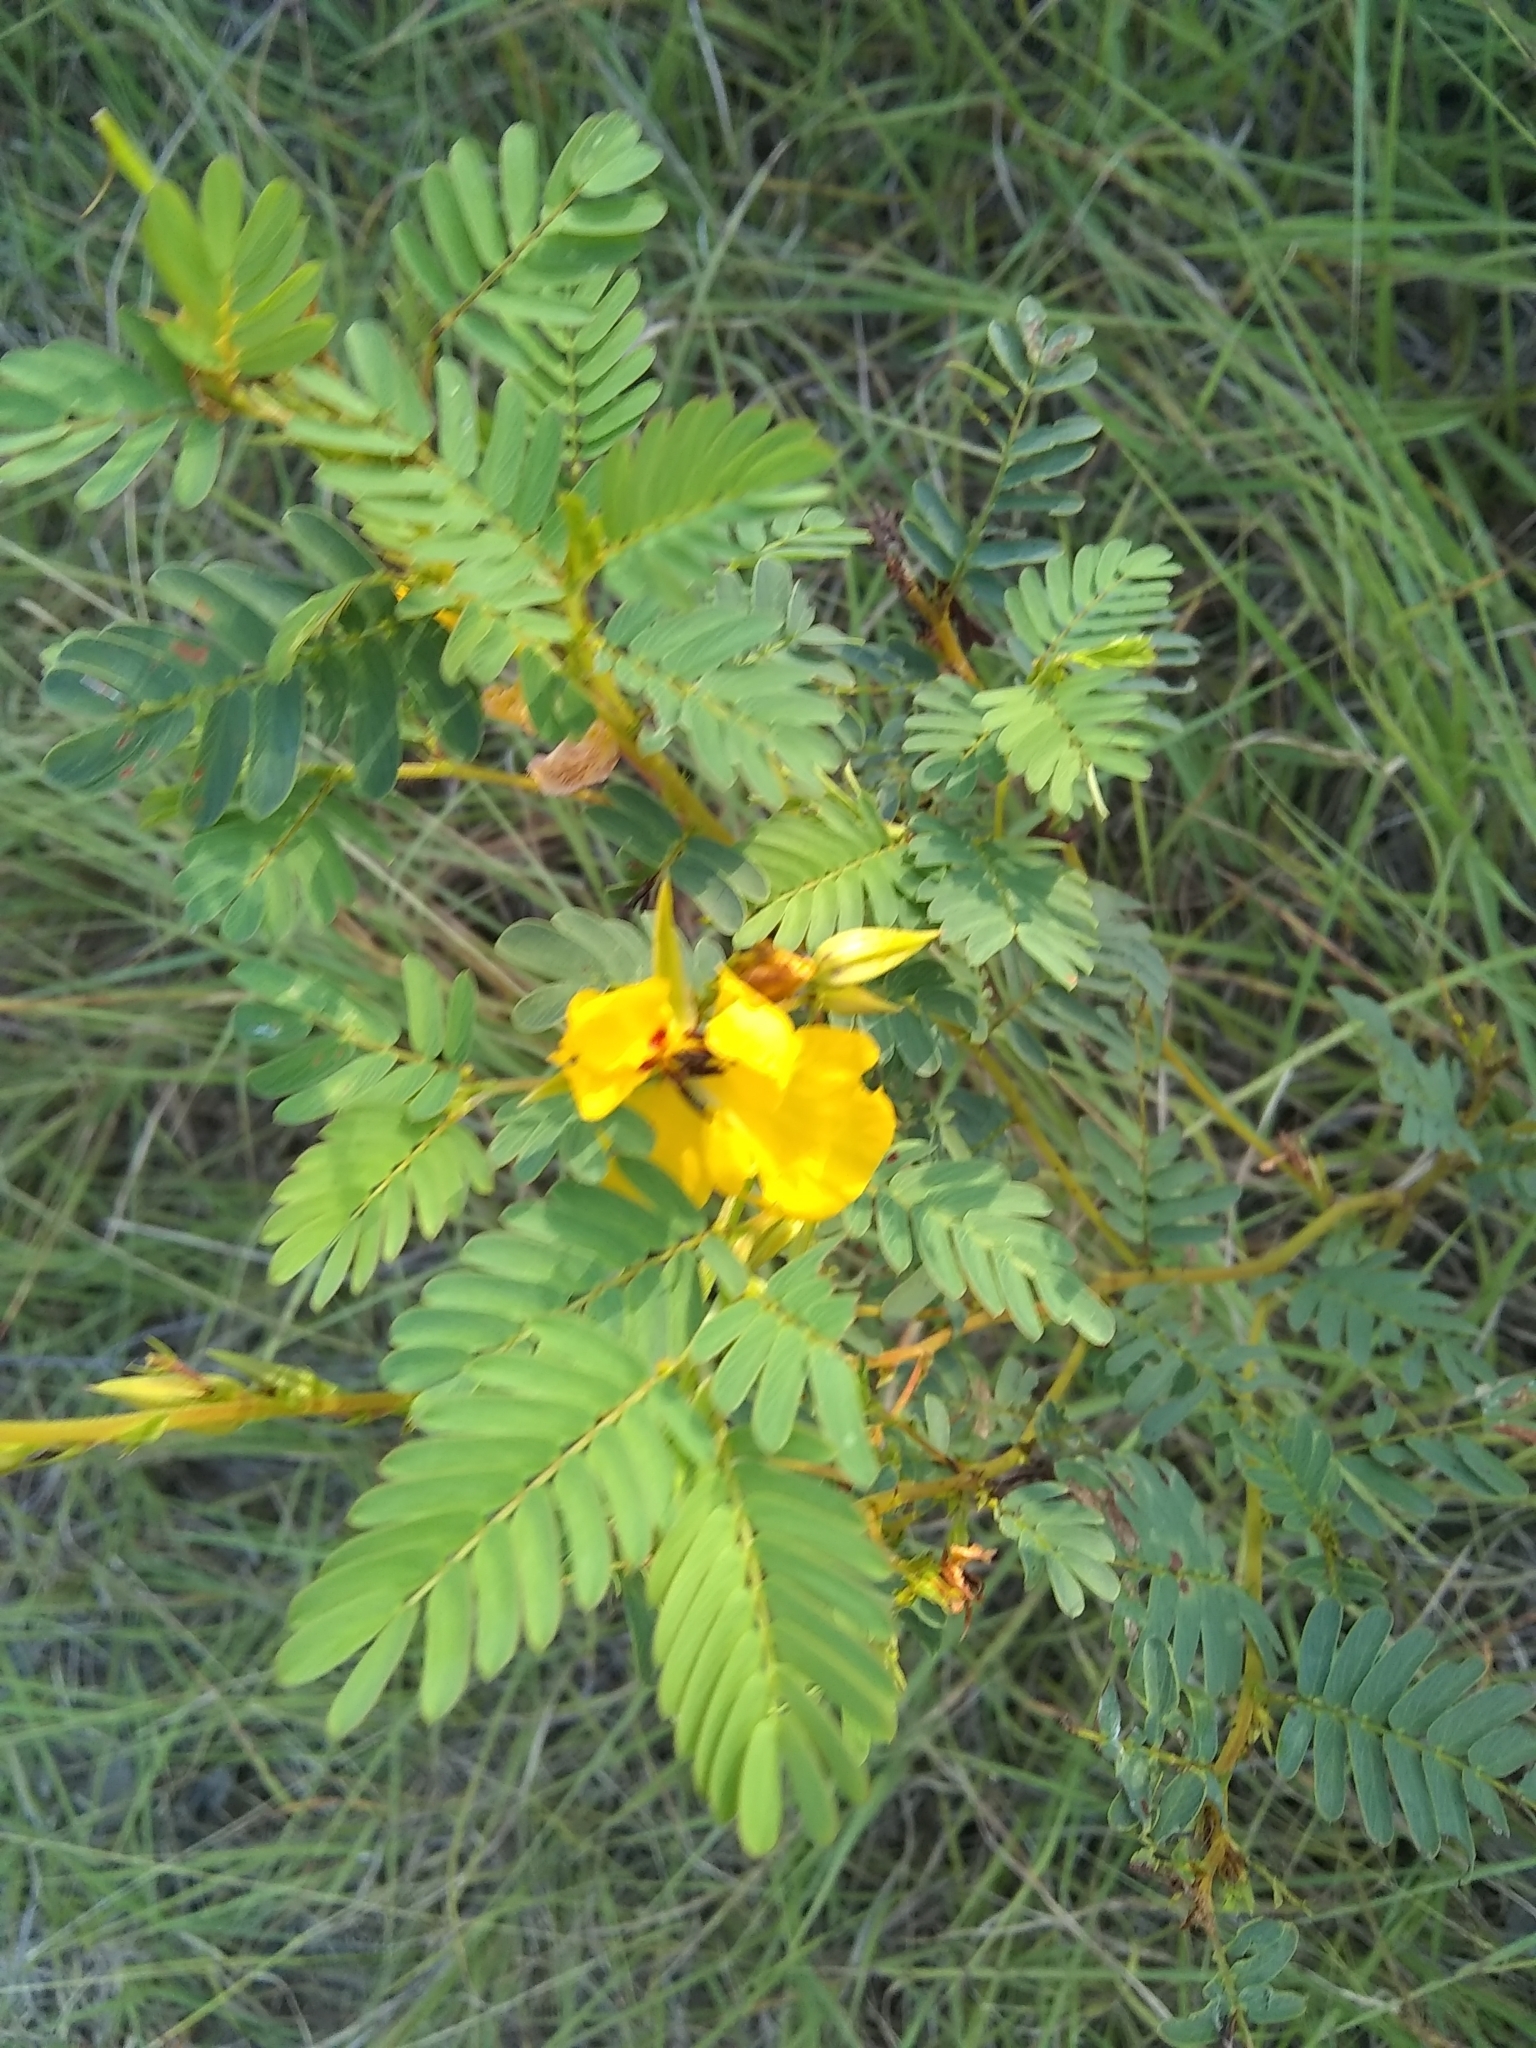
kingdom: Plantae
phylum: Tracheophyta
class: Magnoliopsida
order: Fabales
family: Fabaceae
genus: Chamaecrista
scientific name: Chamaecrista fasciculata
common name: Golden cassia
